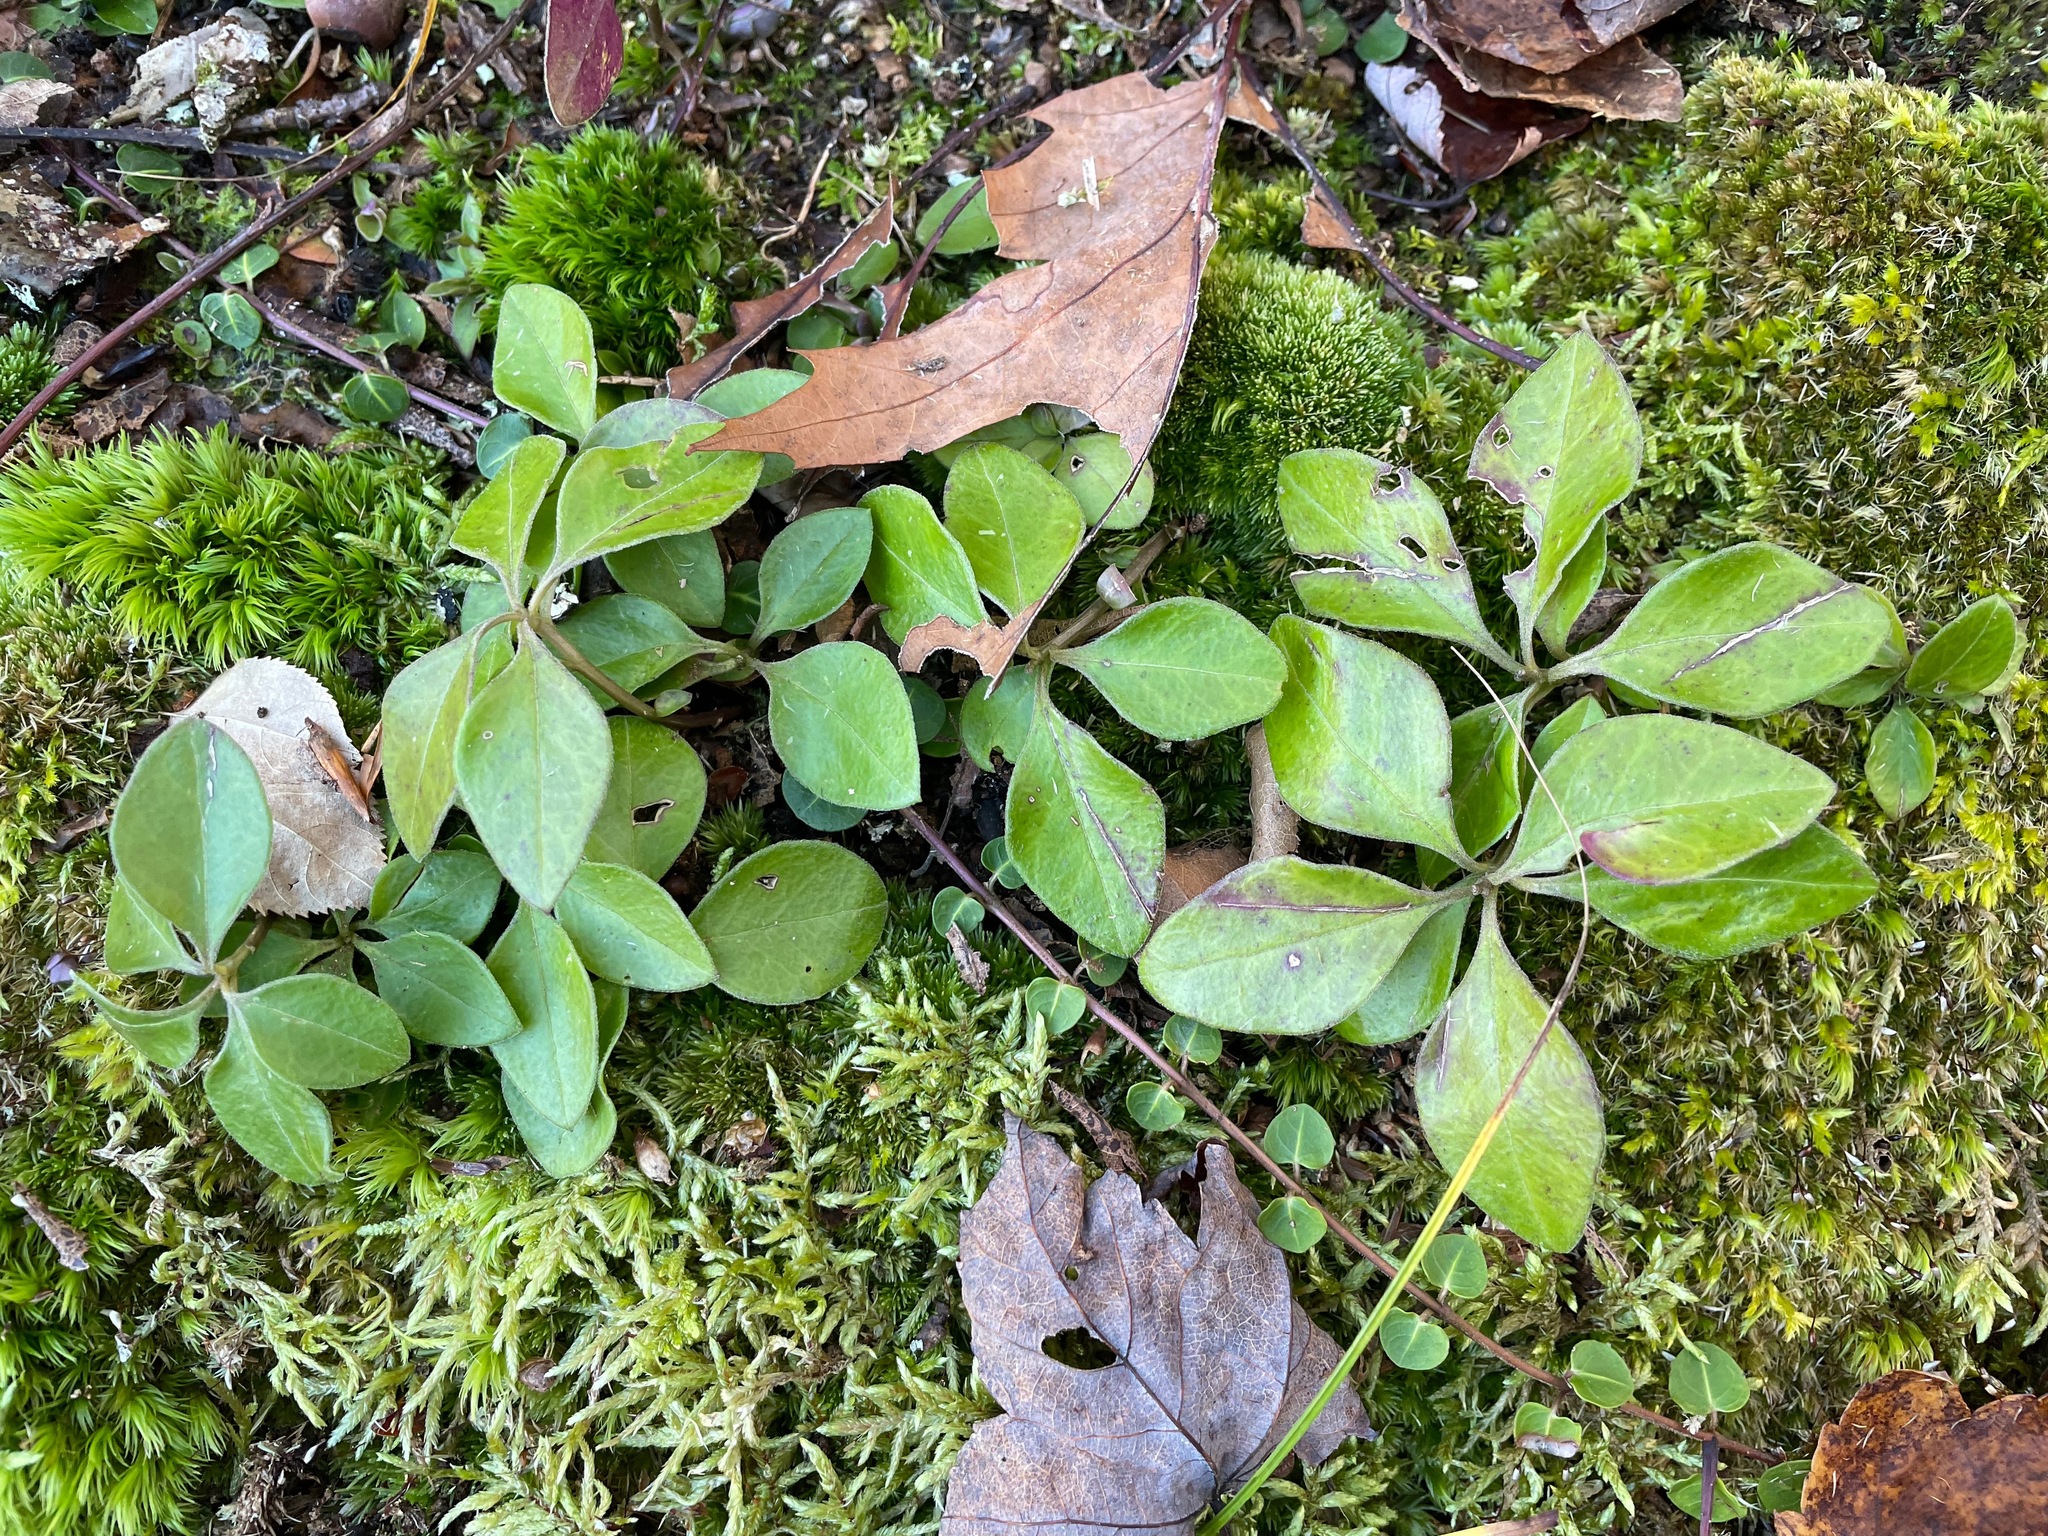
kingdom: Plantae
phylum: Tracheophyta
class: Magnoliopsida
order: Fabales
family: Polygalaceae
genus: Polygaloides
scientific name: Polygaloides paucifolia
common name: Bird-on-the-wing
